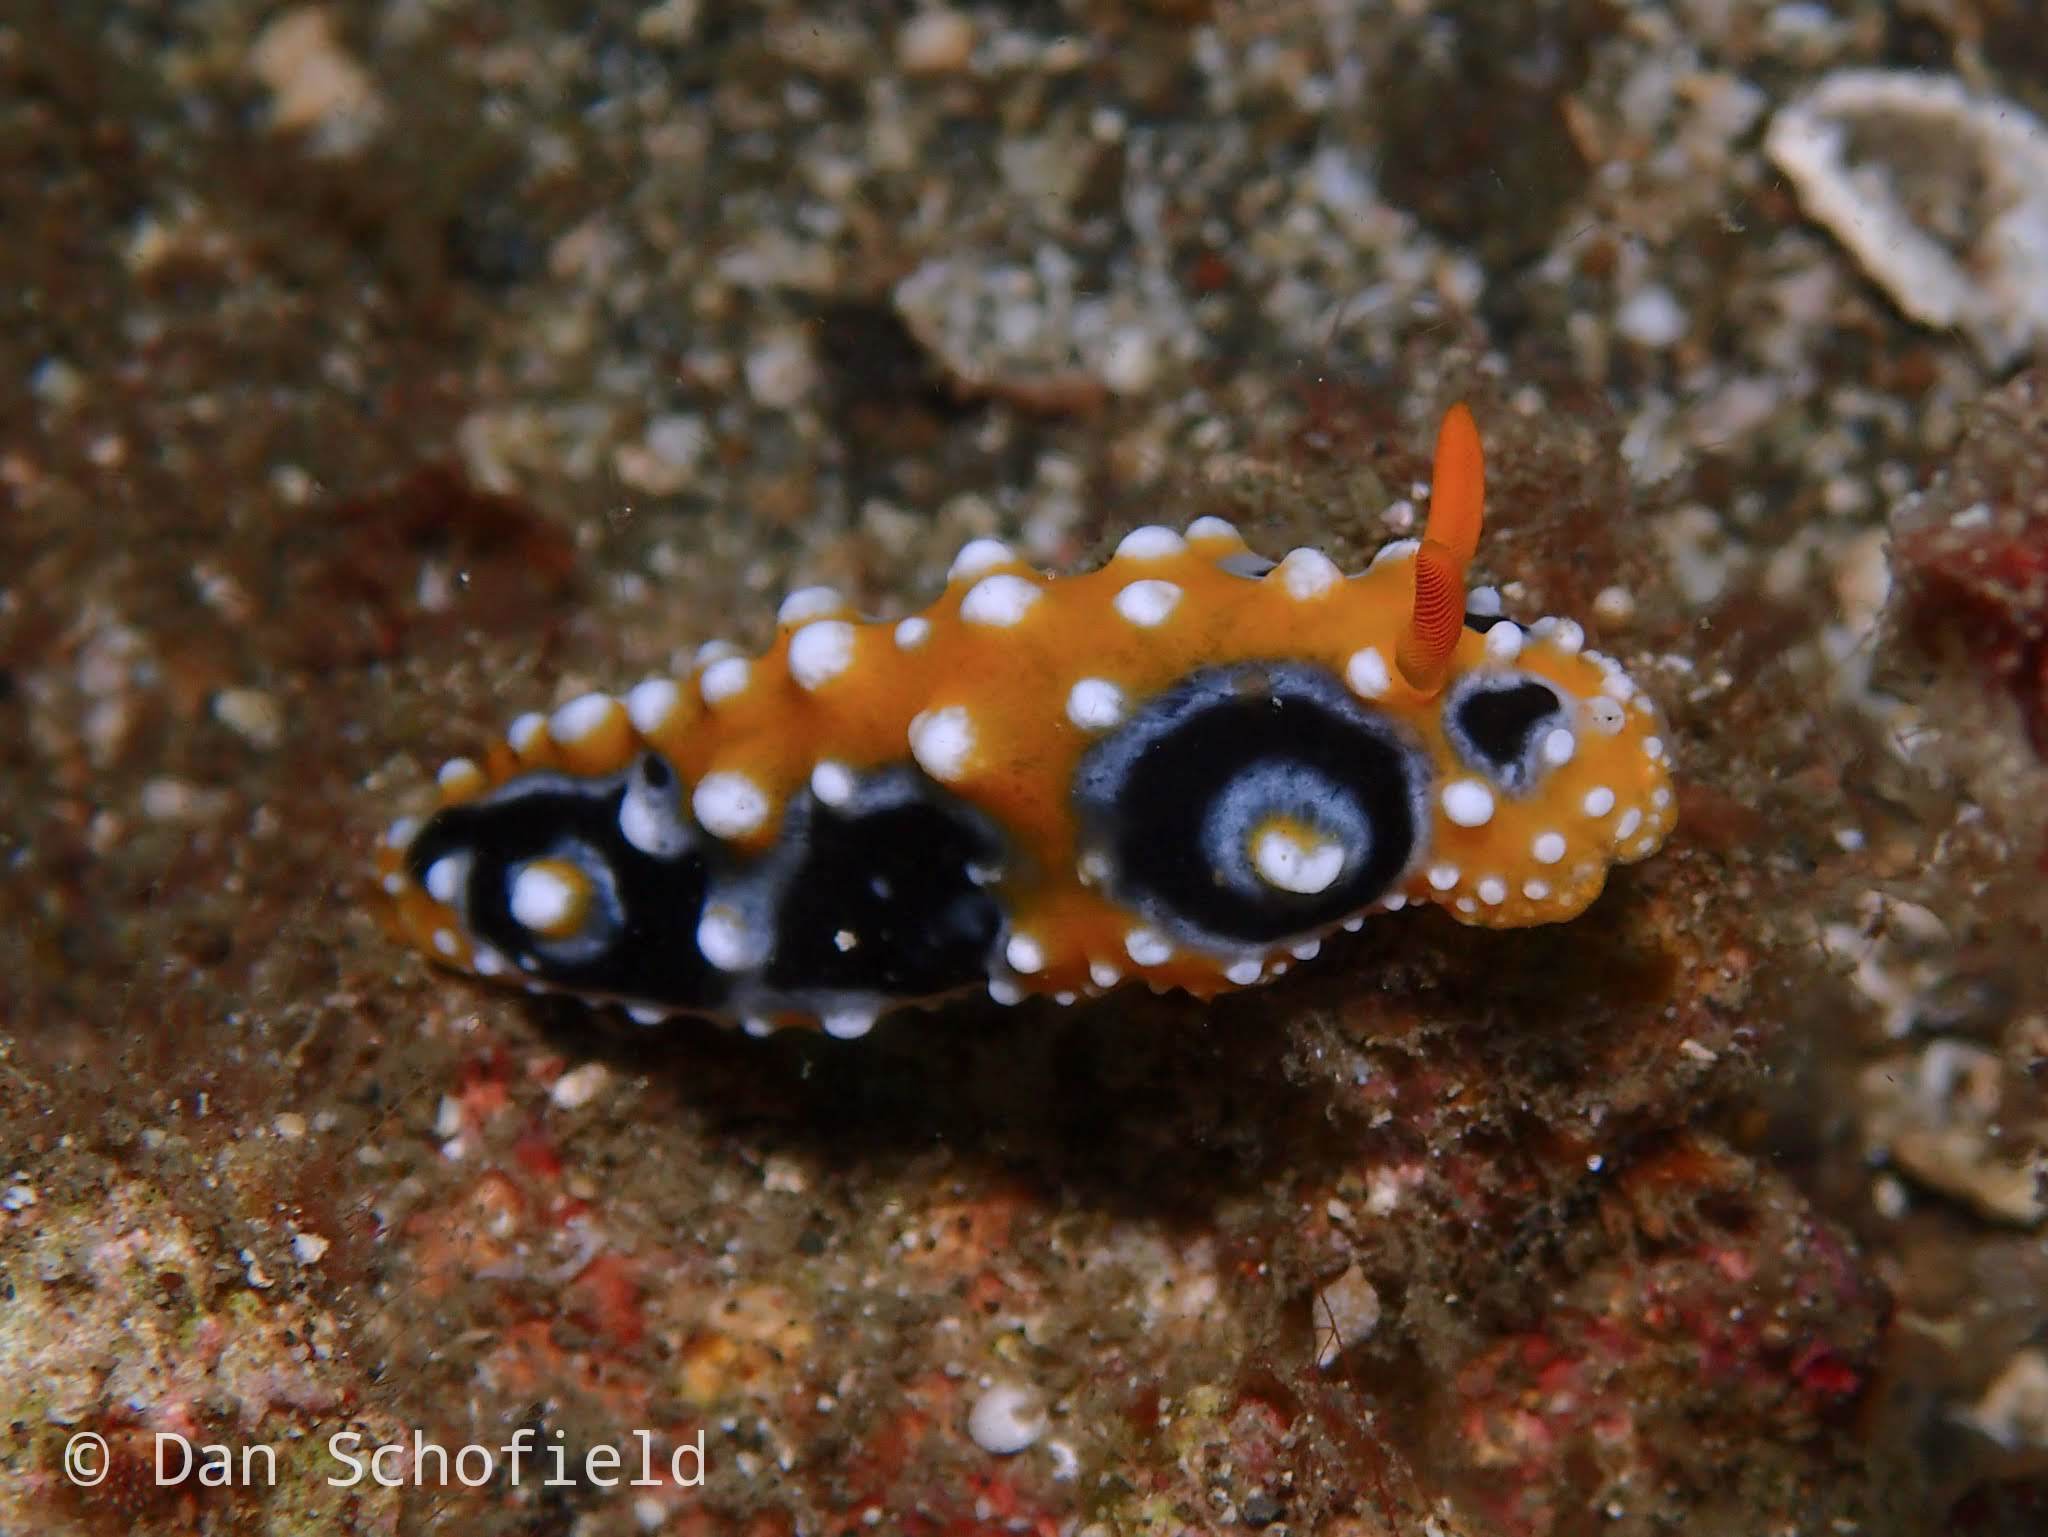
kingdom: Animalia
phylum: Mollusca
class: Gastropoda
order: Nudibranchia
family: Phyllidiidae
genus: Phyllidia
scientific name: Phyllidia ocellata
